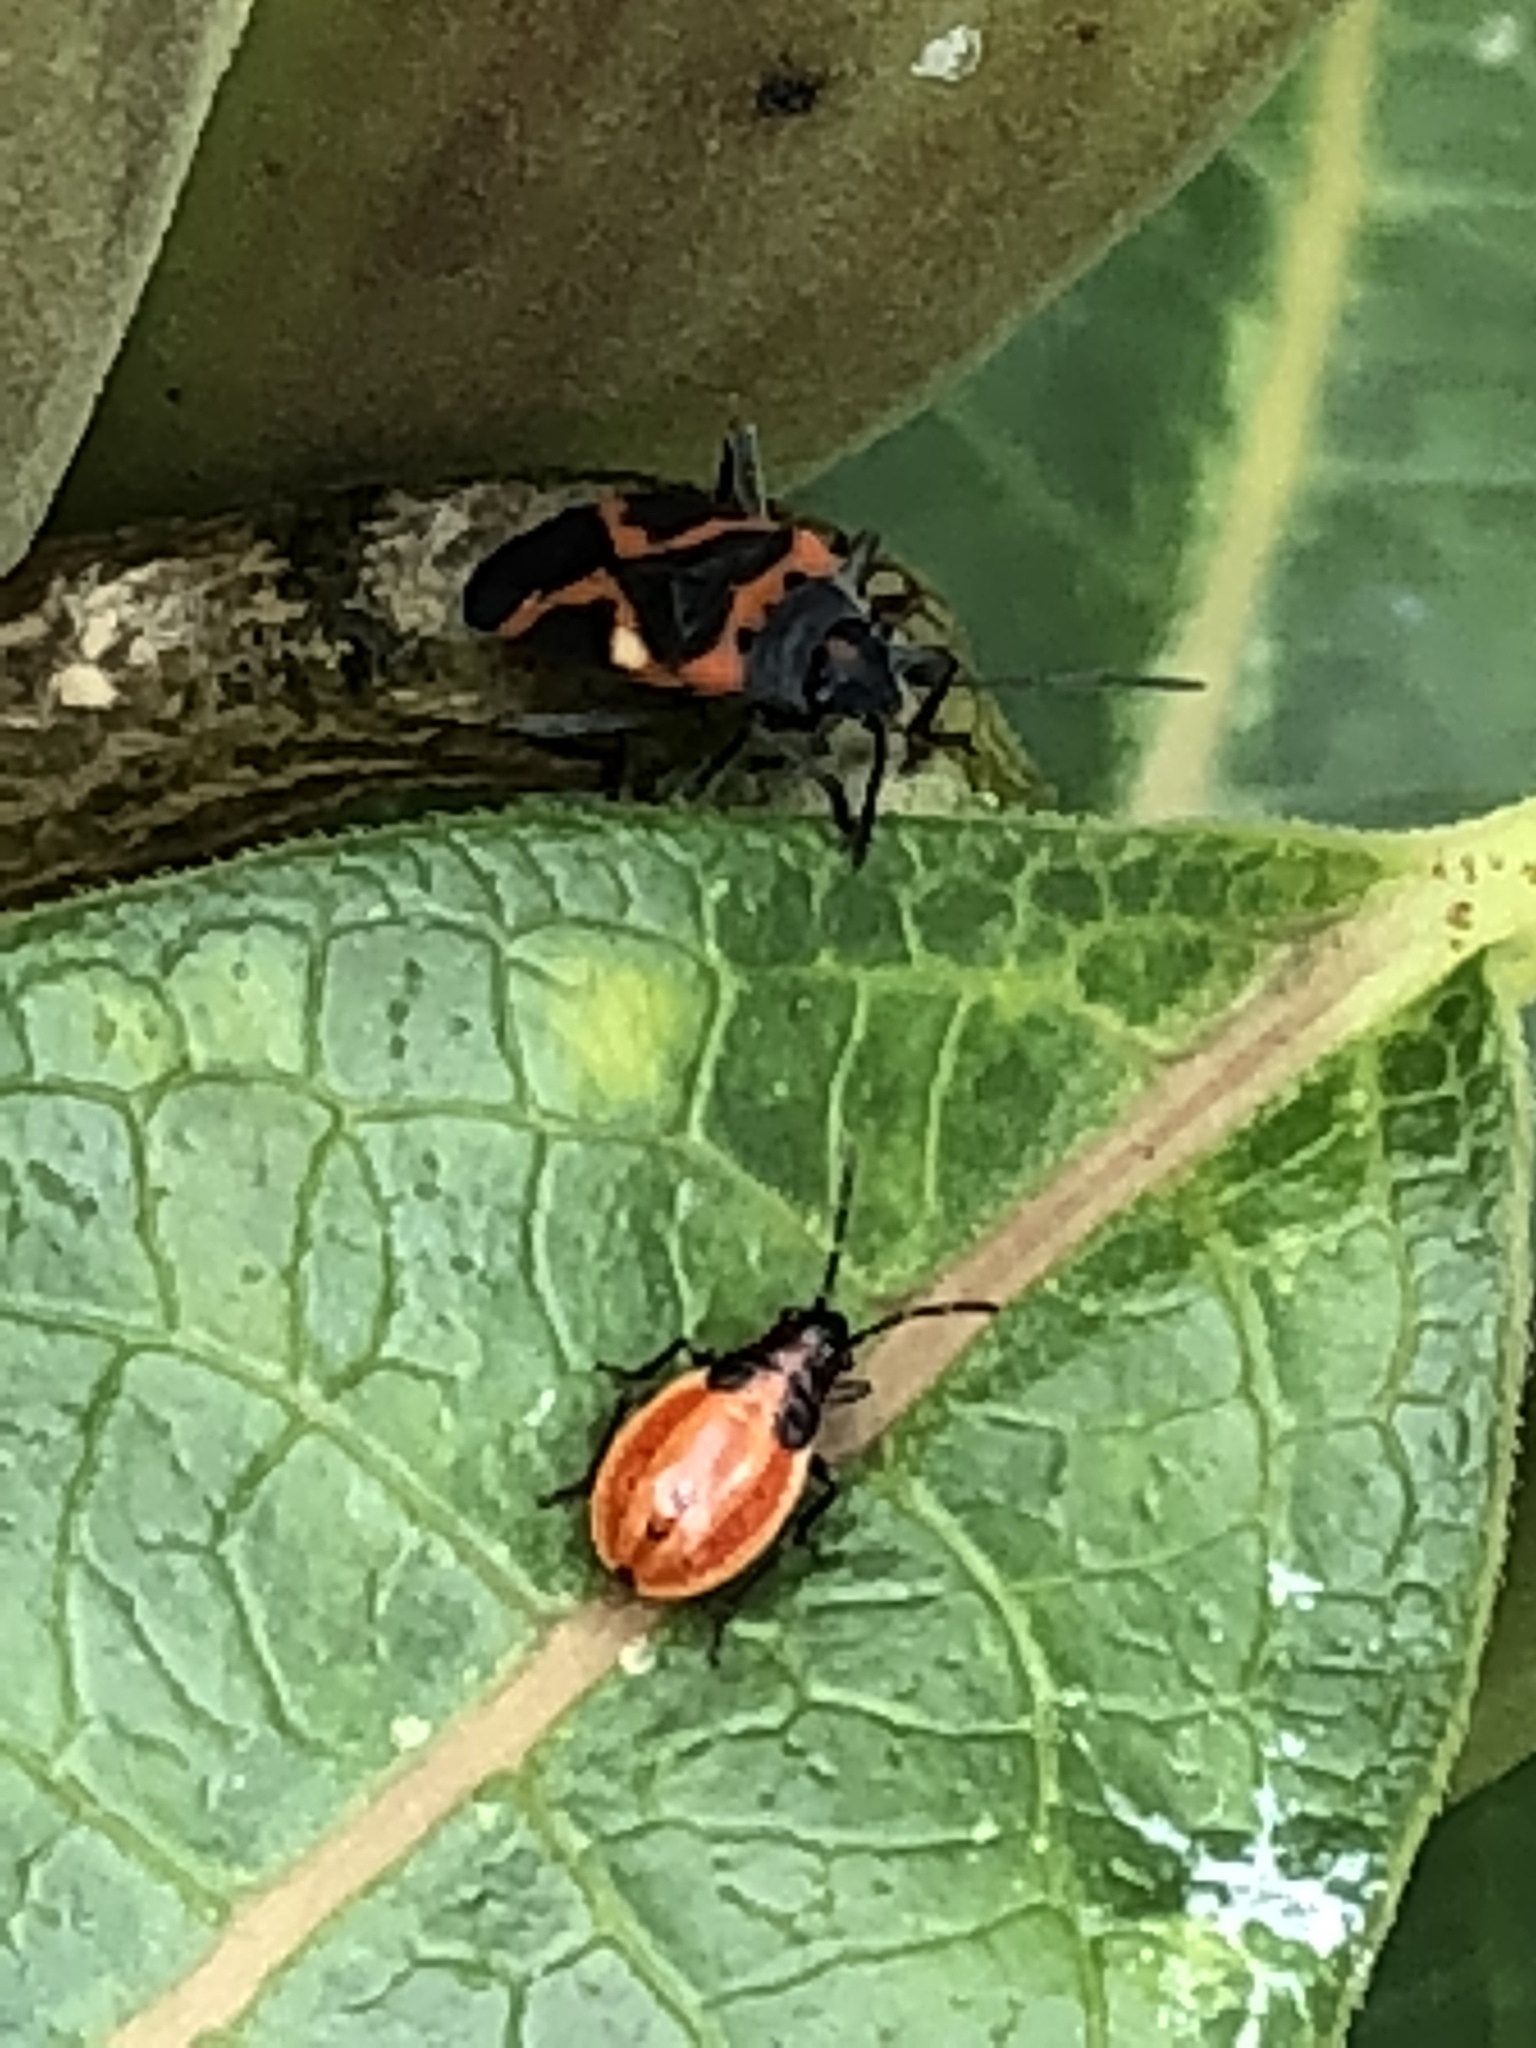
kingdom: Animalia
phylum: Arthropoda
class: Insecta
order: Hemiptera
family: Lygaeidae
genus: Lygaeus
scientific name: Lygaeus kalmii
